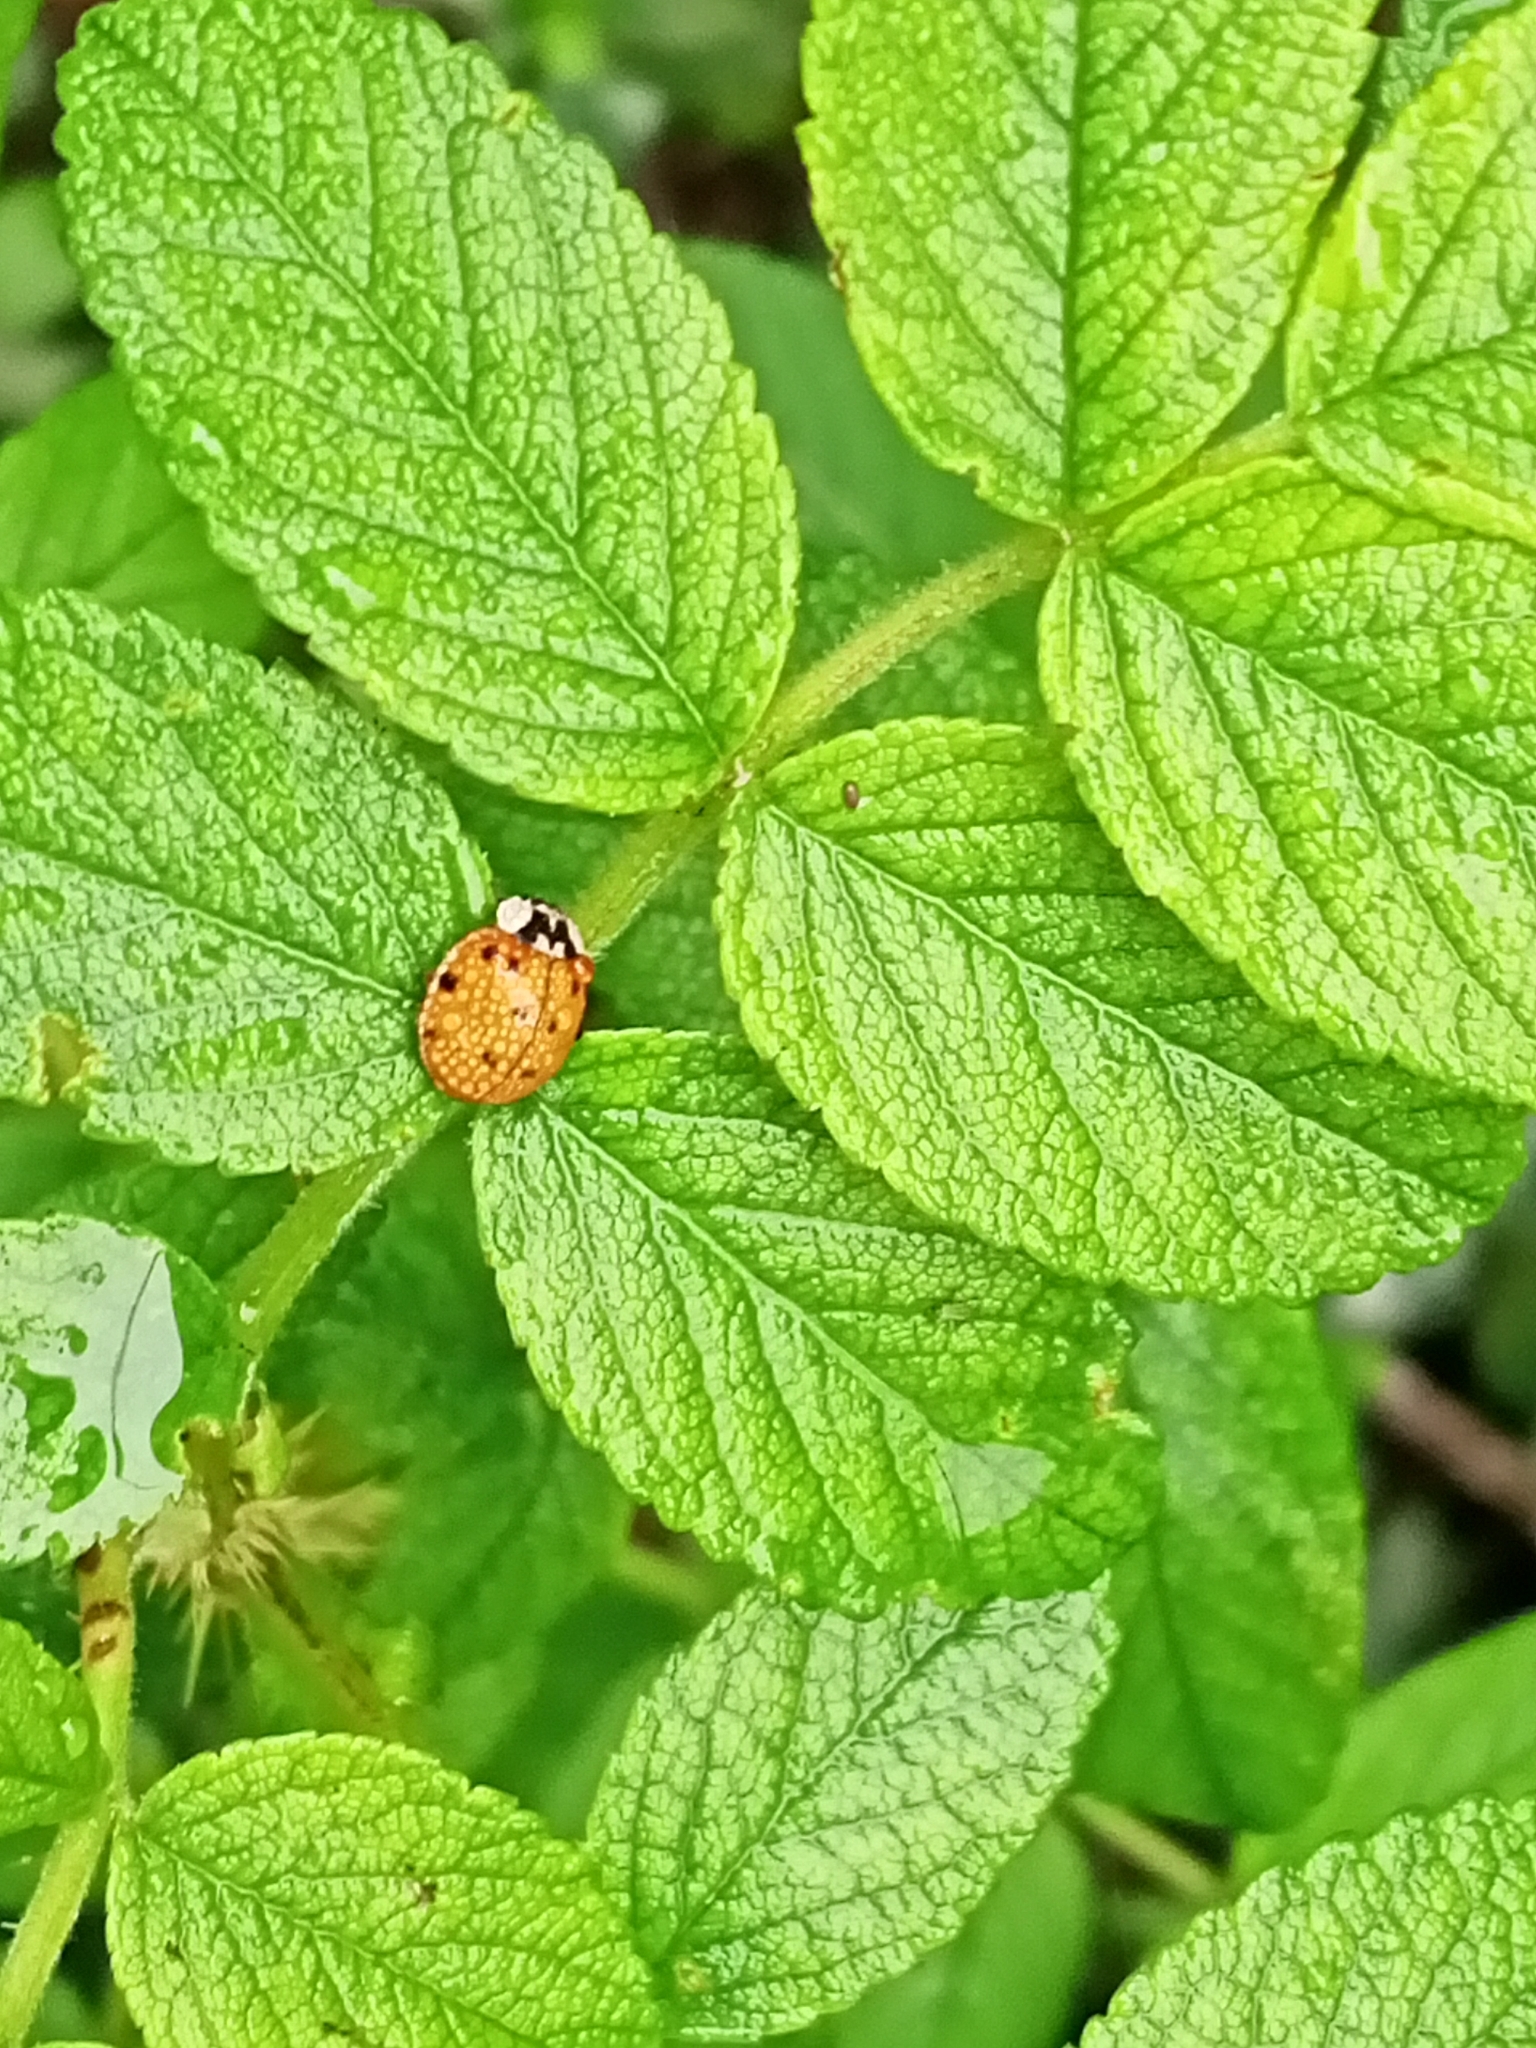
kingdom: Animalia
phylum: Arthropoda
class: Insecta
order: Coleoptera
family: Coccinellidae
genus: Harmonia
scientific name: Harmonia axyridis
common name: Harlequin ladybird
